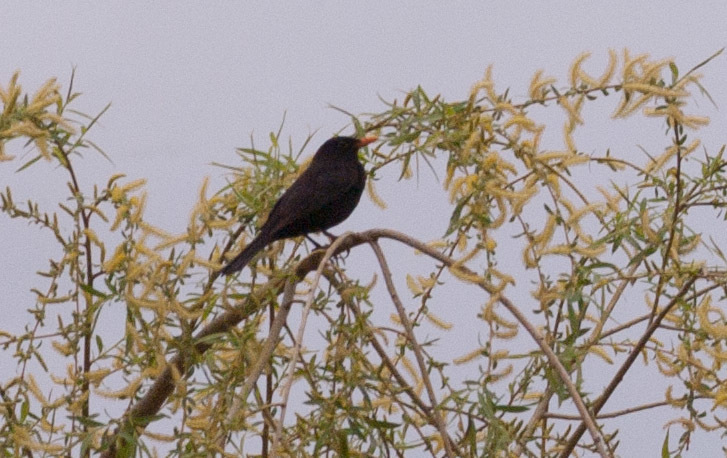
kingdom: Animalia
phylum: Chordata
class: Aves
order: Passeriformes
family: Turdidae
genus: Turdus
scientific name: Turdus merula
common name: Common blackbird
